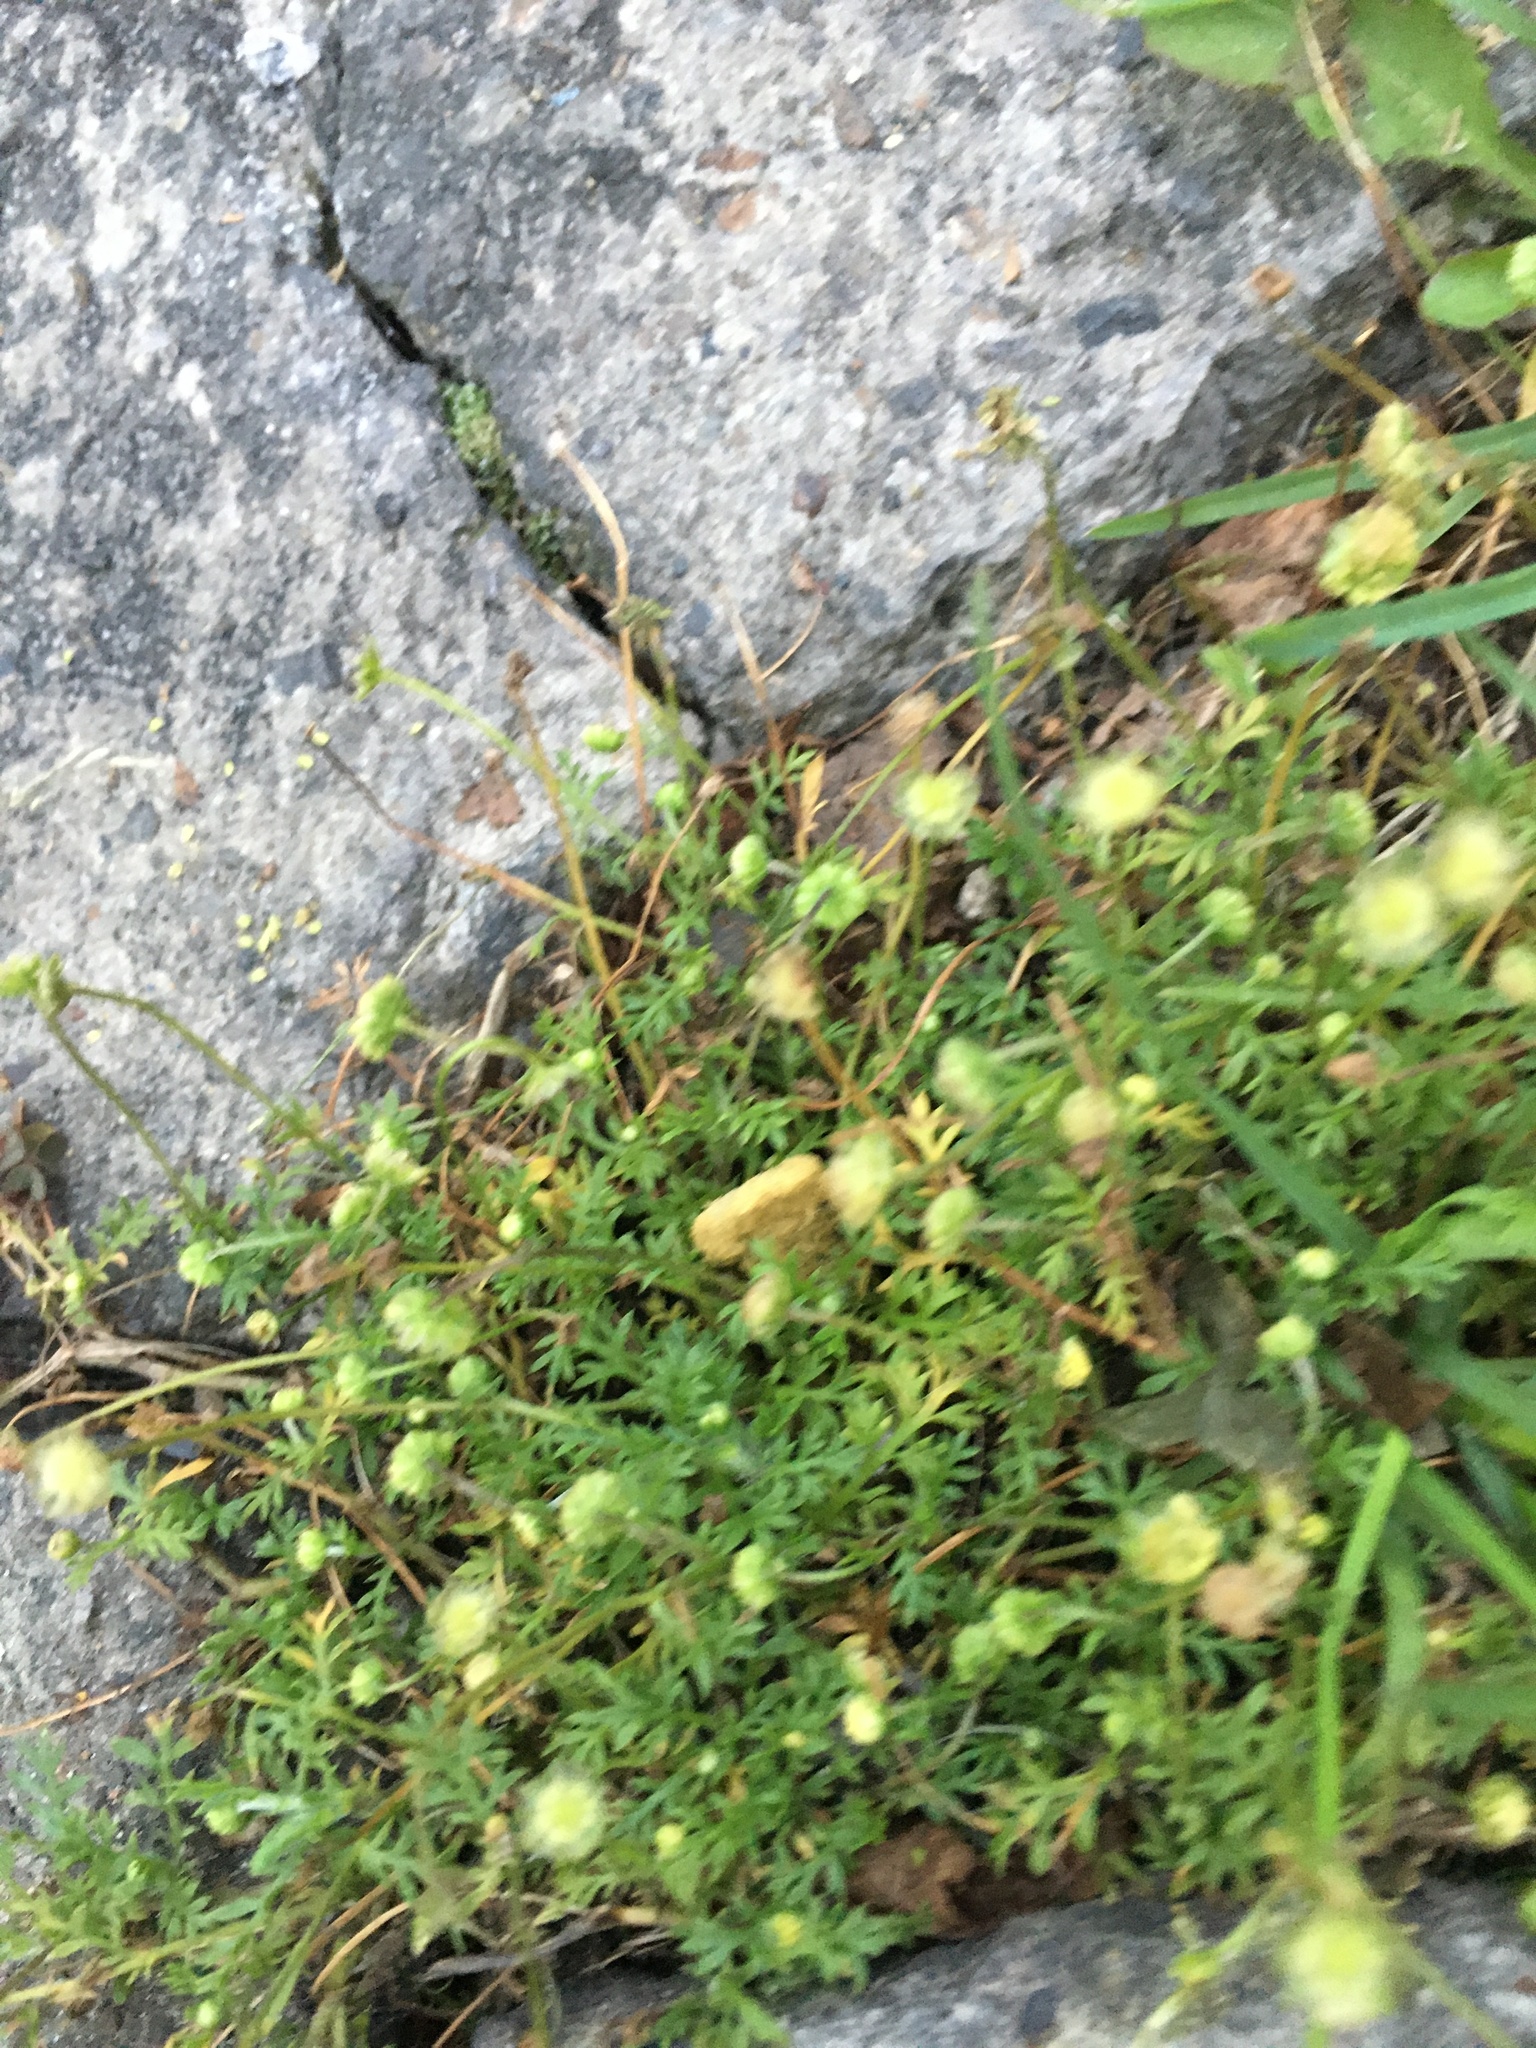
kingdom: Plantae
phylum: Tracheophyta
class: Magnoliopsida
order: Asterales
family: Asteraceae
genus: Cotula
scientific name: Cotula australis
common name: Australian waterbuttons
